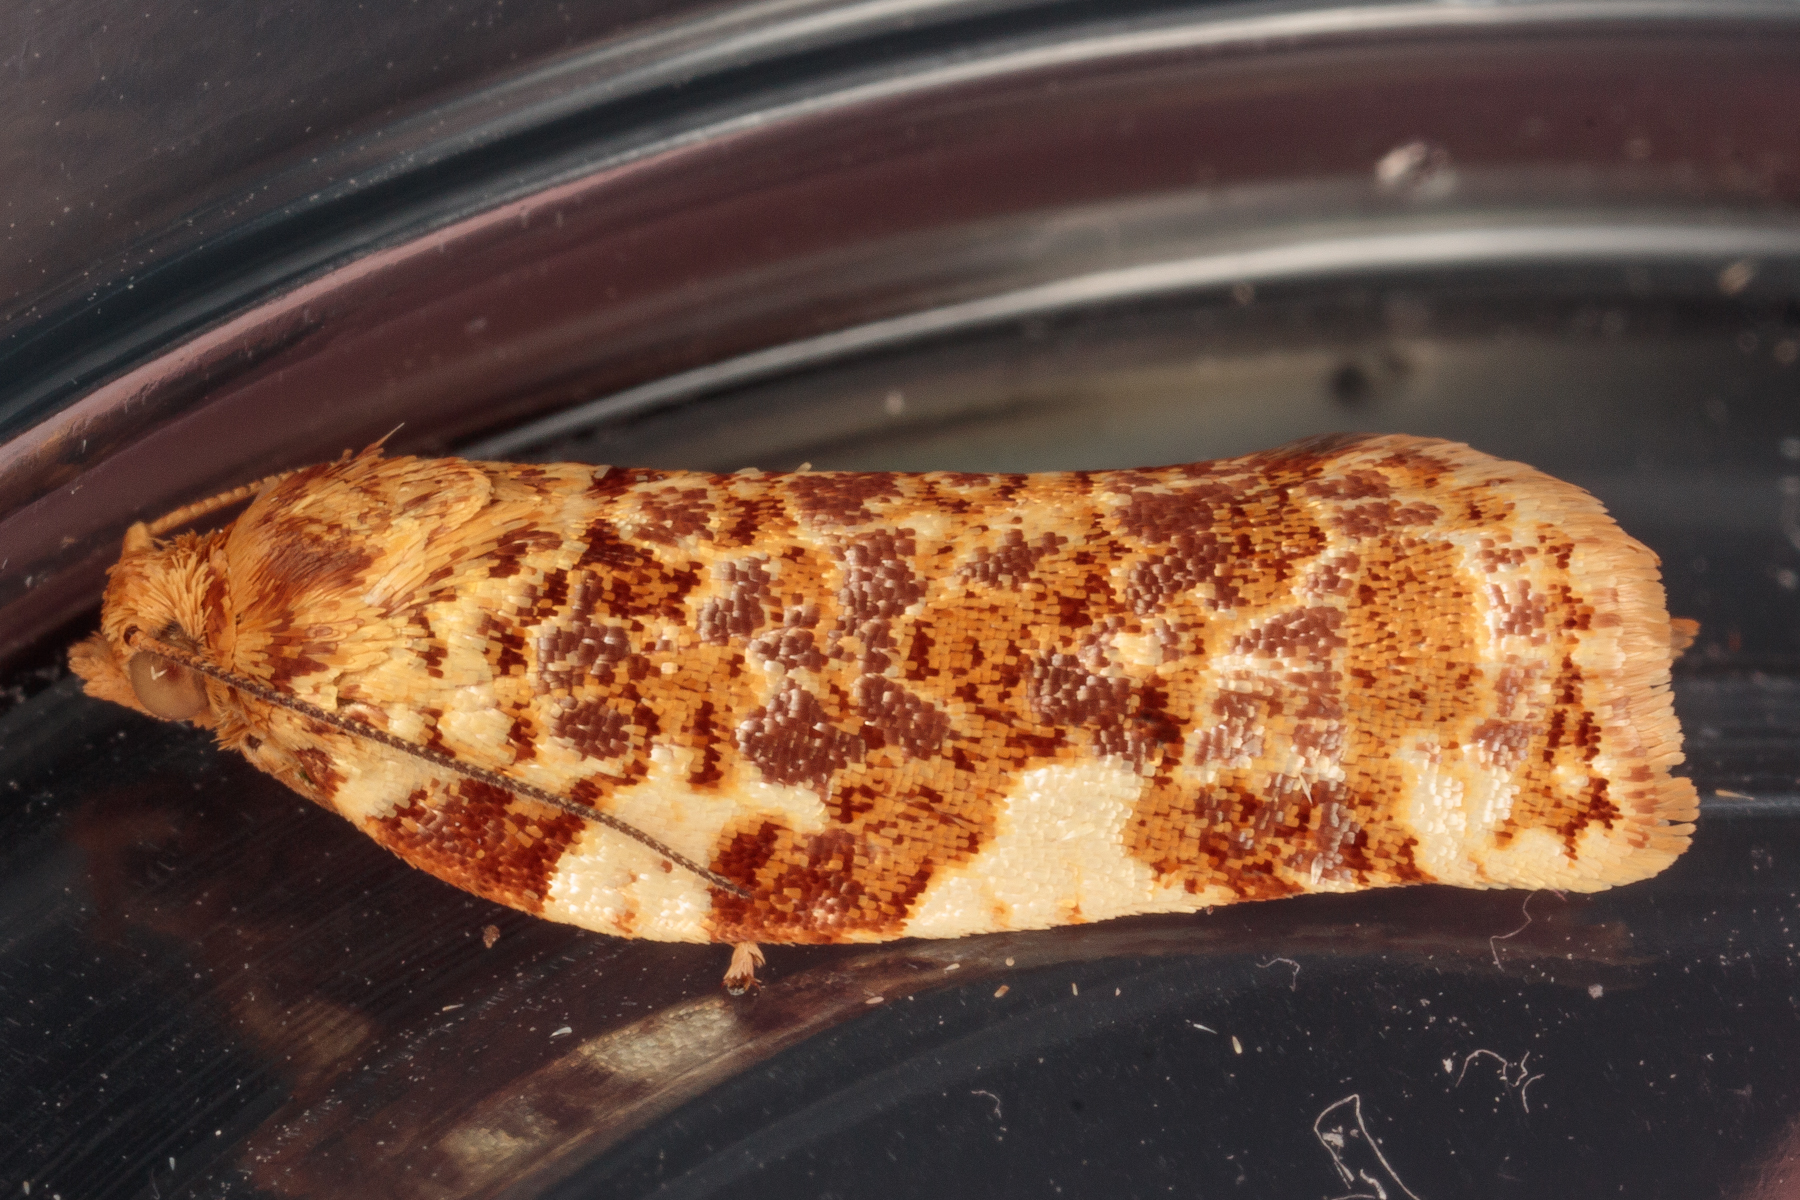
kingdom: Animalia
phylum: Arthropoda
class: Insecta
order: Lepidoptera
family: Tortricidae
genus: Archips
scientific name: Archips argyrospila
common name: Fruit-tree leafroller moth
